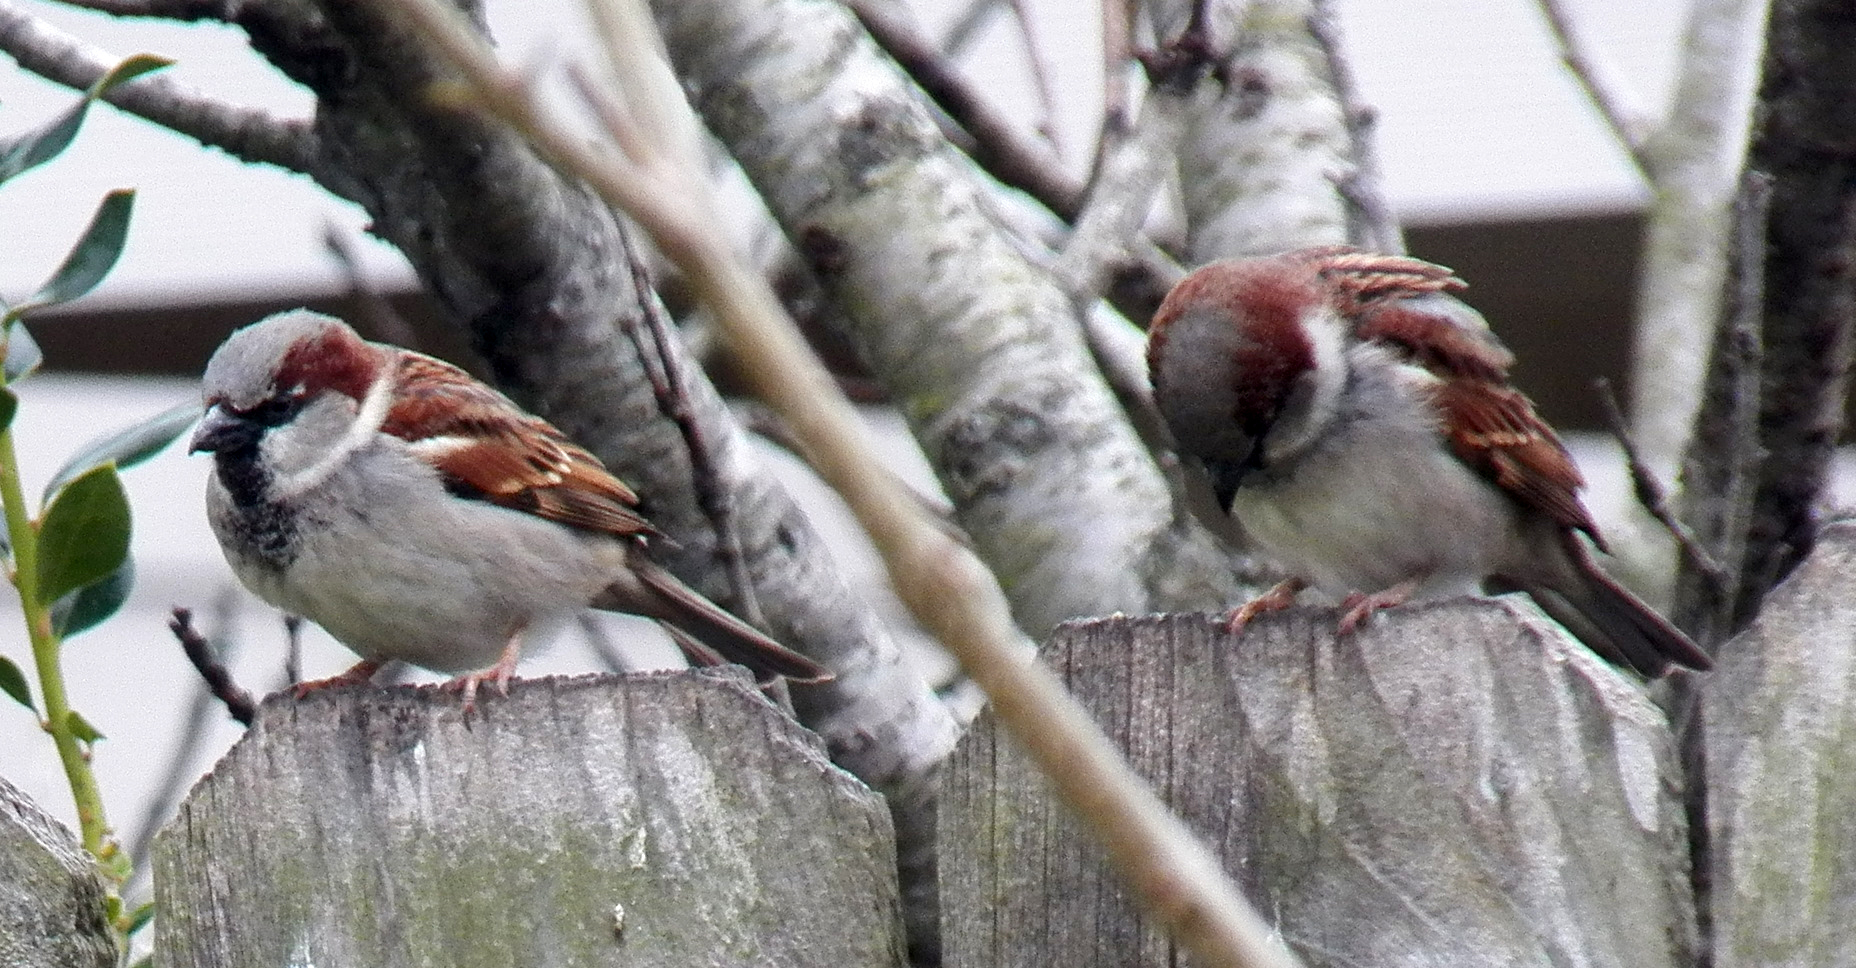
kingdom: Animalia
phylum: Chordata
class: Aves
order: Passeriformes
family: Passeridae
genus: Passer
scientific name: Passer domesticus
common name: House sparrow
